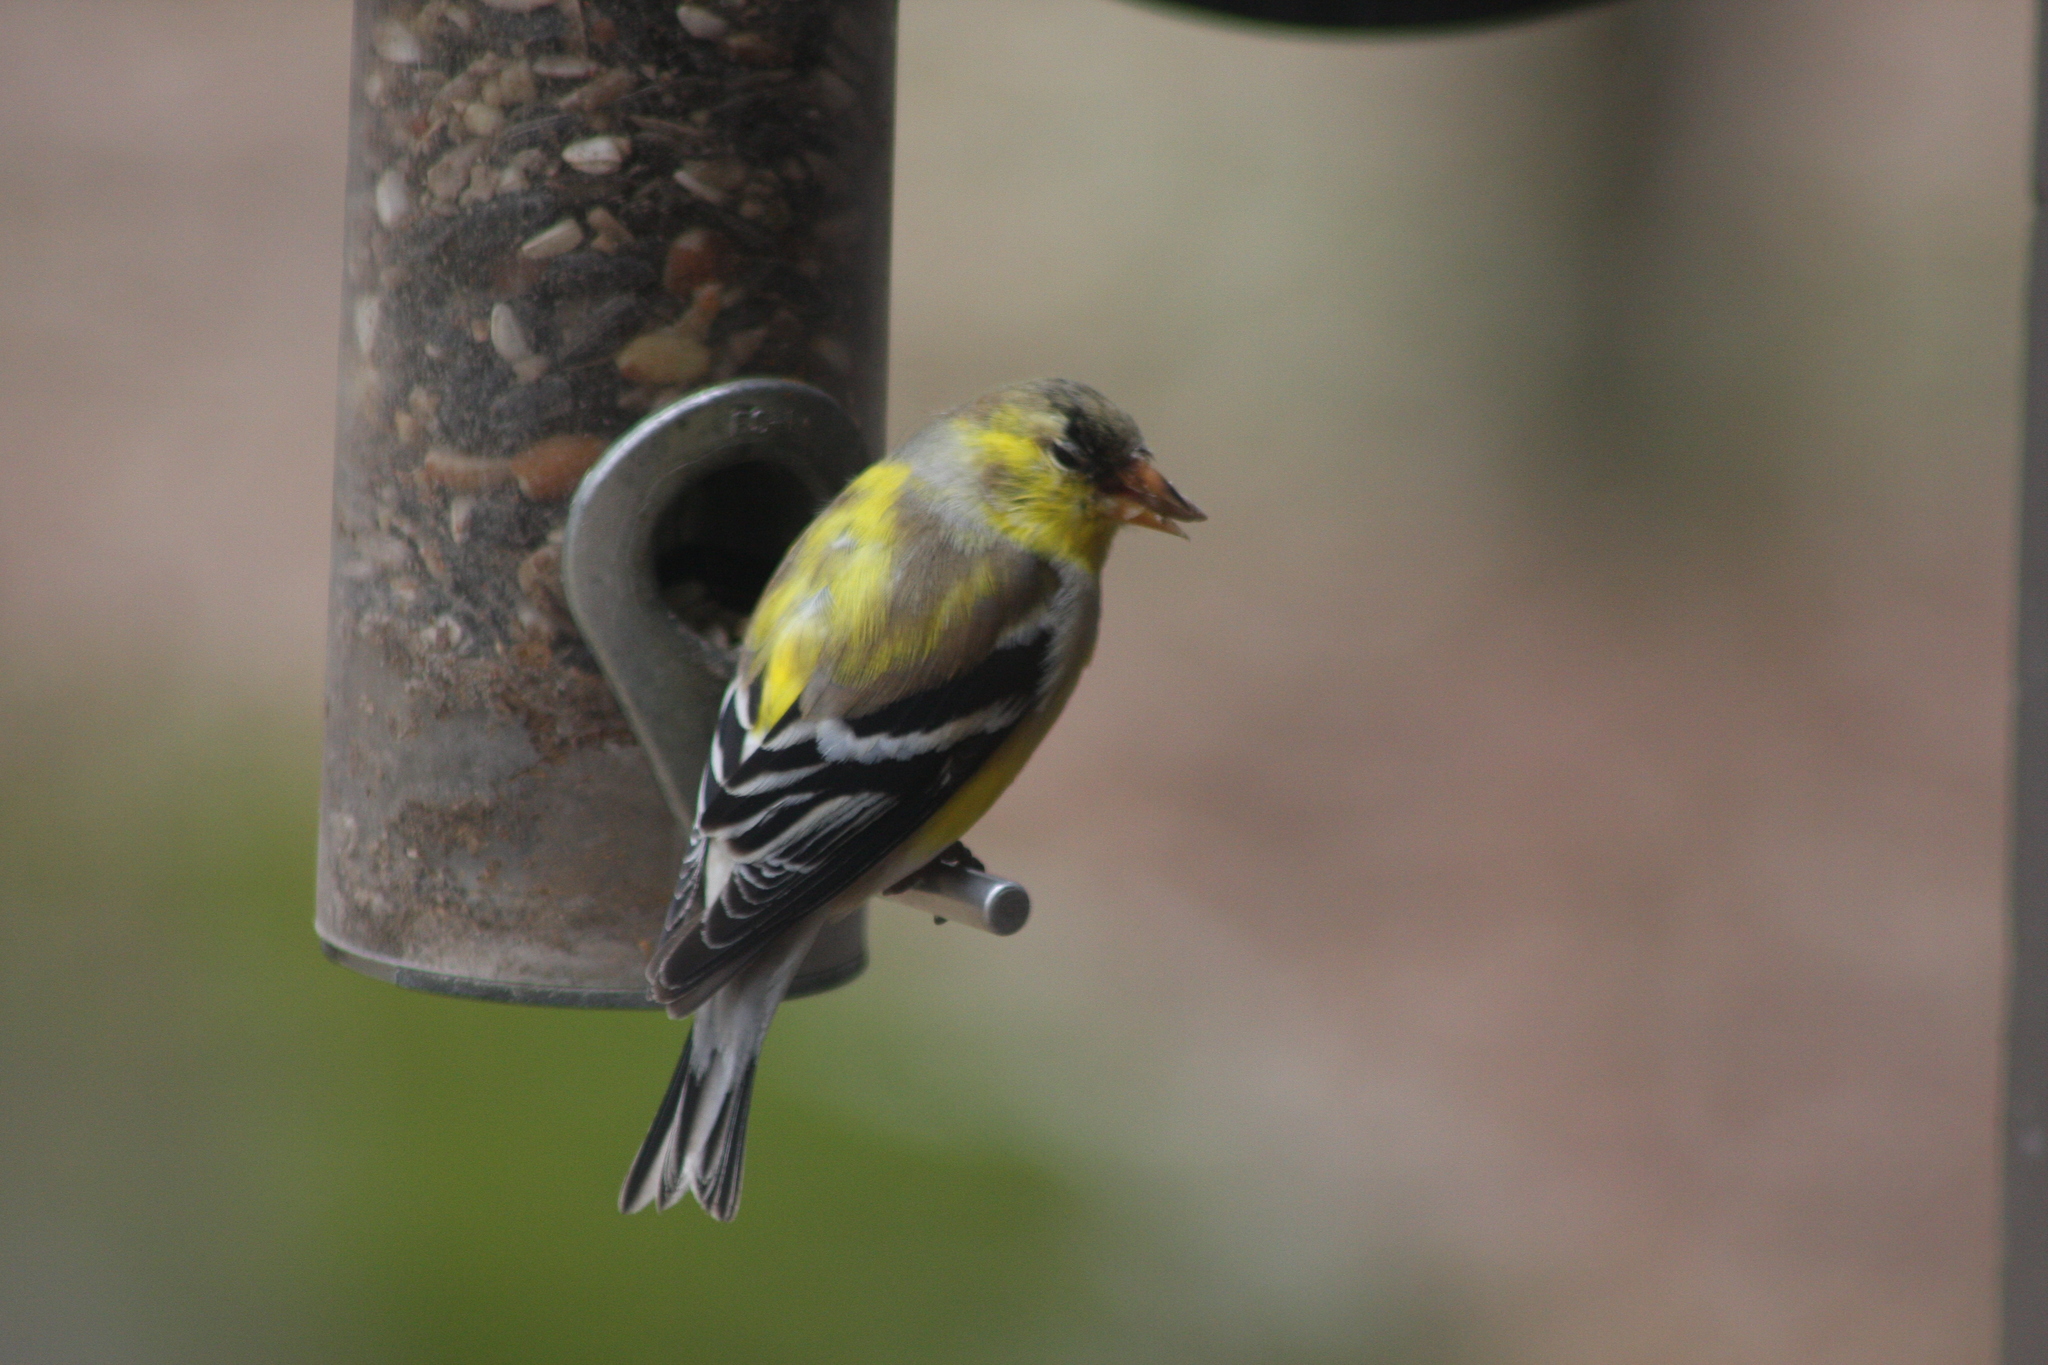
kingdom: Animalia
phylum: Chordata
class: Aves
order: Passeriformes
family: Fringillidae
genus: Spinus
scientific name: Spinus tristis
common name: American goldfinch
